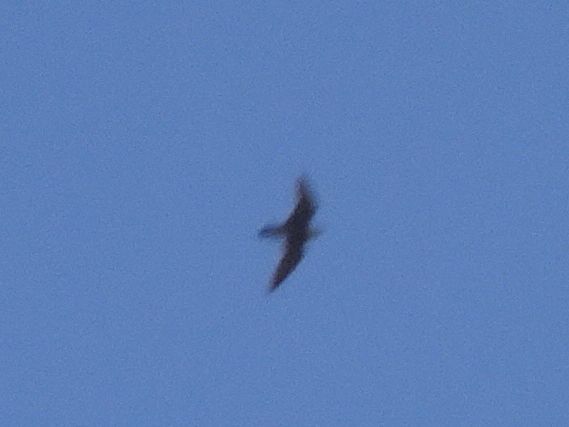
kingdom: Animalia
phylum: Chordata
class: Aves
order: Falconiformes
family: Falconidae
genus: Falco
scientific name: Falco peregrinus
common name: Peregrine falcon
